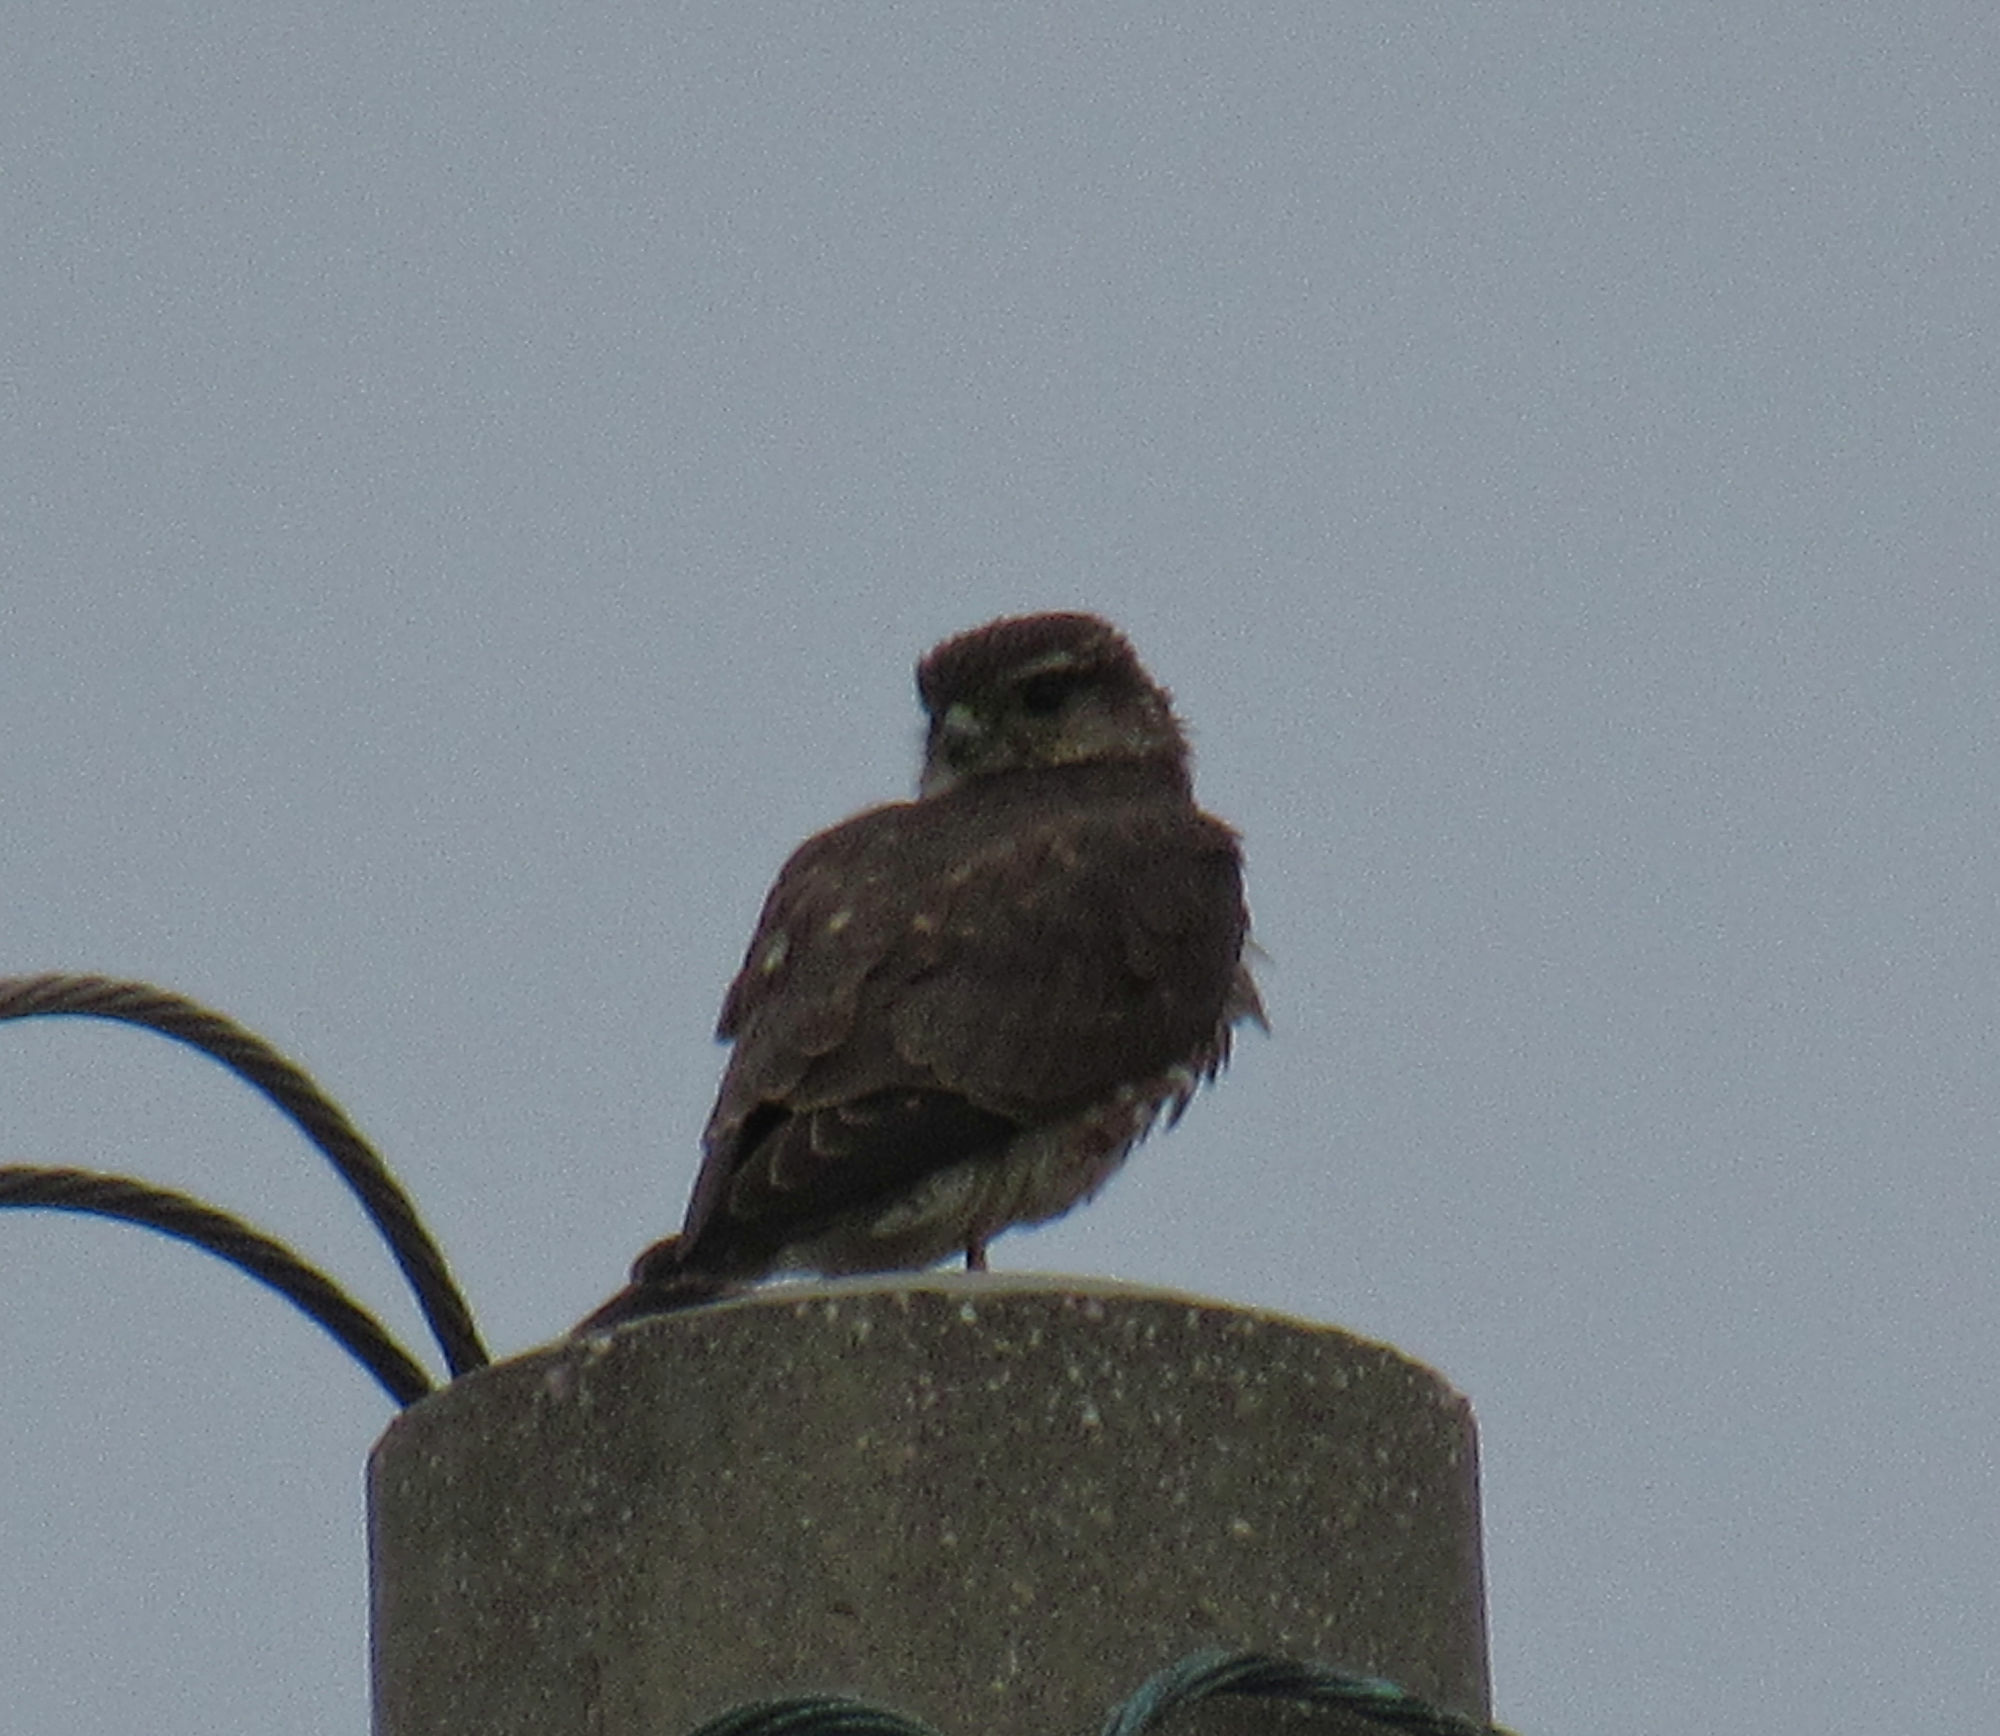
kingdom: Animalia
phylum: Chordata
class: Aves
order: Falconiformes
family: Falconidae
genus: Falco
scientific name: Falco columbarius
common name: Merlin
